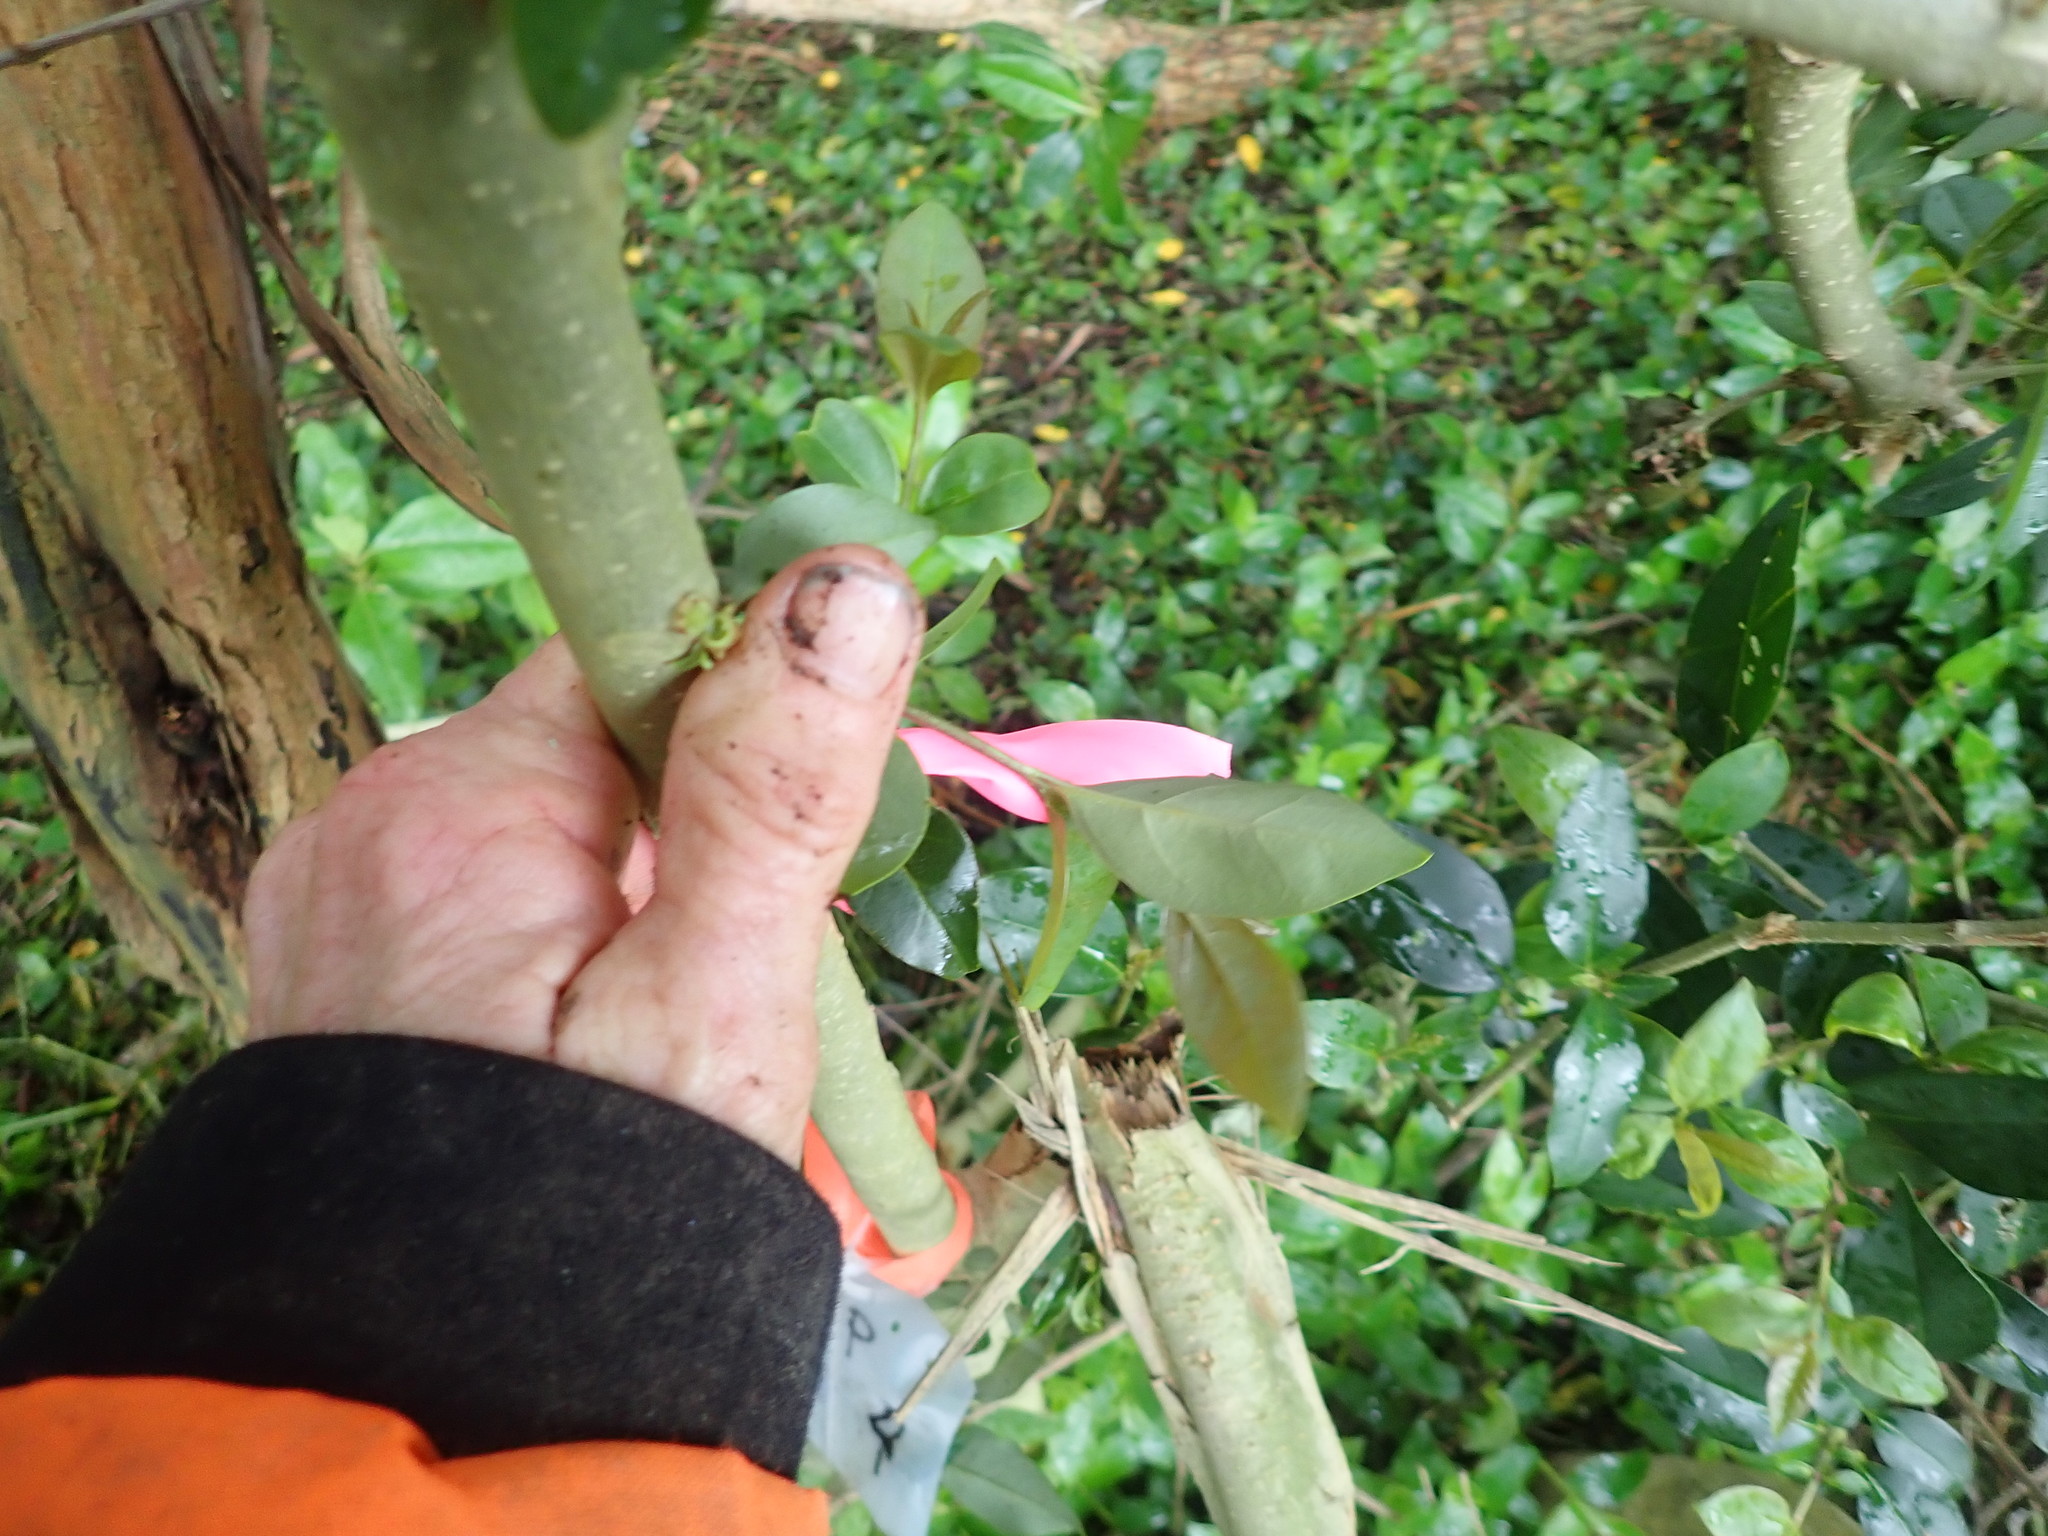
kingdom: Plantae
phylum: Tracheophyta
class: Magnoliopsida
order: Lamiales
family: Oleaceae
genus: Ligustrum
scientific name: Ligustrum lucidum
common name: Glossy privet
